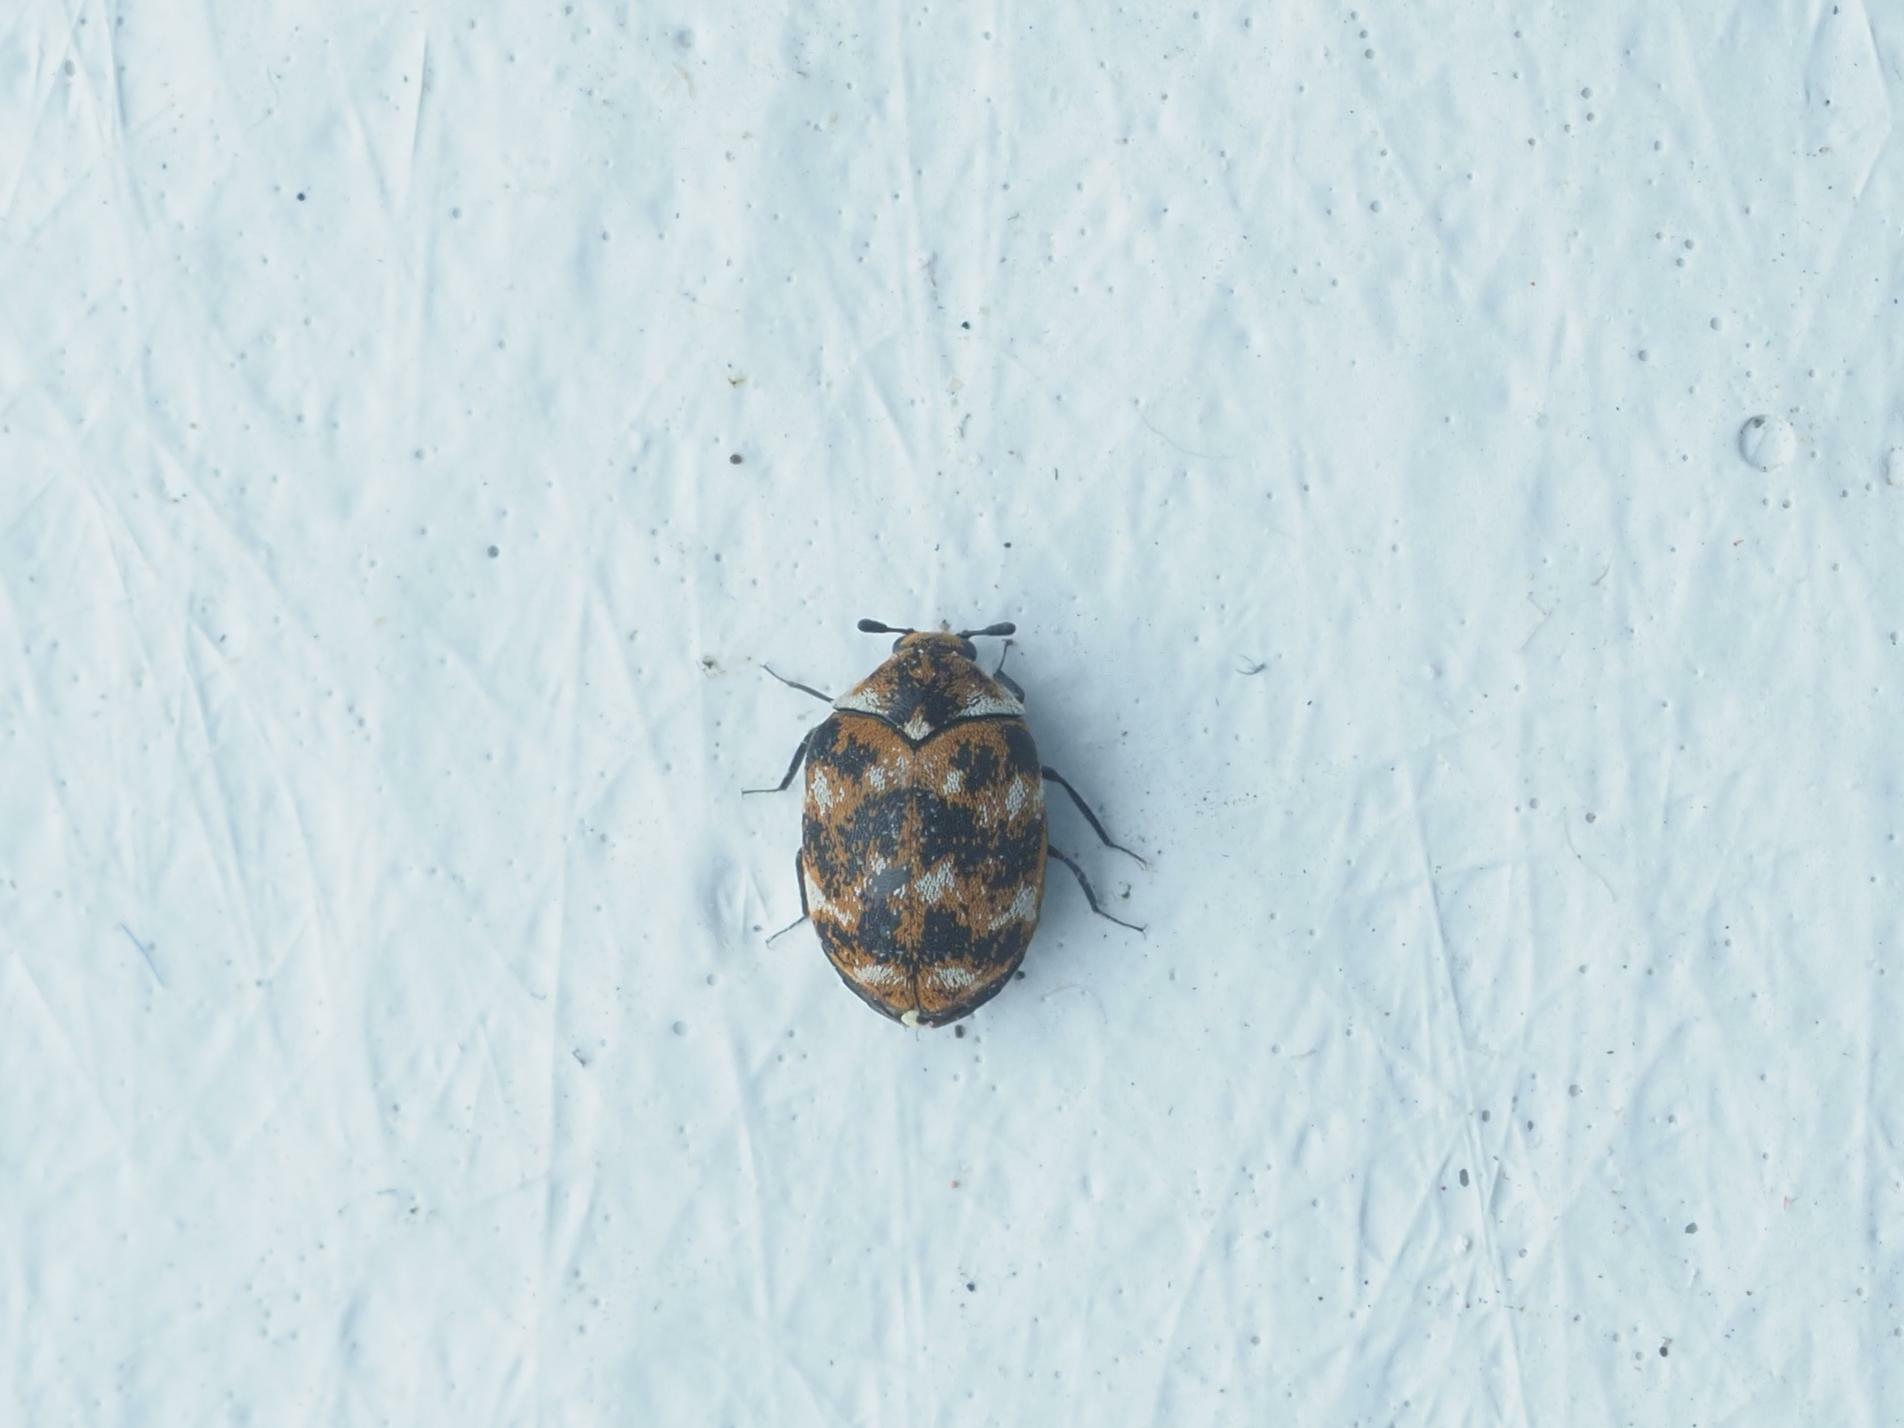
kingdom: Animalia
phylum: Arthropoda
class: Insecta
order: Coleoptera
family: Dermestidae
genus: Anthrenus
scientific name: Anthrenus verbasci
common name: Varied carpet beetle
